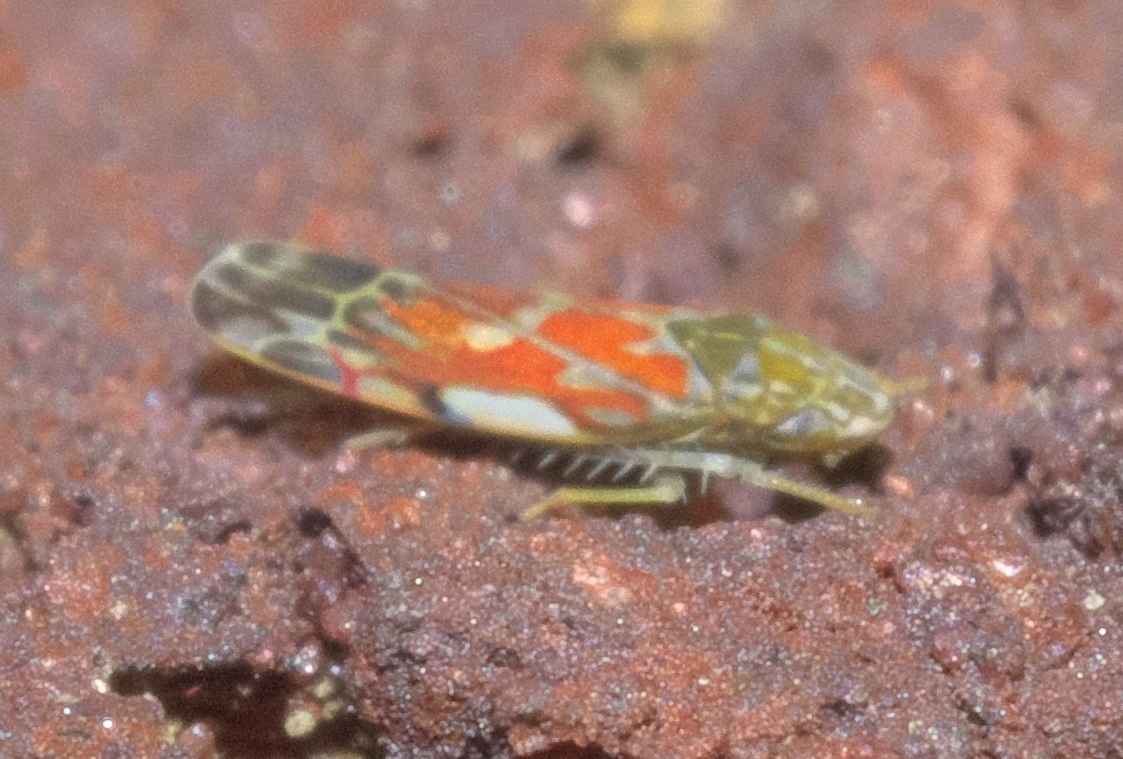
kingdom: Animalia
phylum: Arthropoda
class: Insecta
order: Hemiptera
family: Cicadellidae
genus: Erasmoneura
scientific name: Erasmoneura vulnerata
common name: The wounded leafhopper
